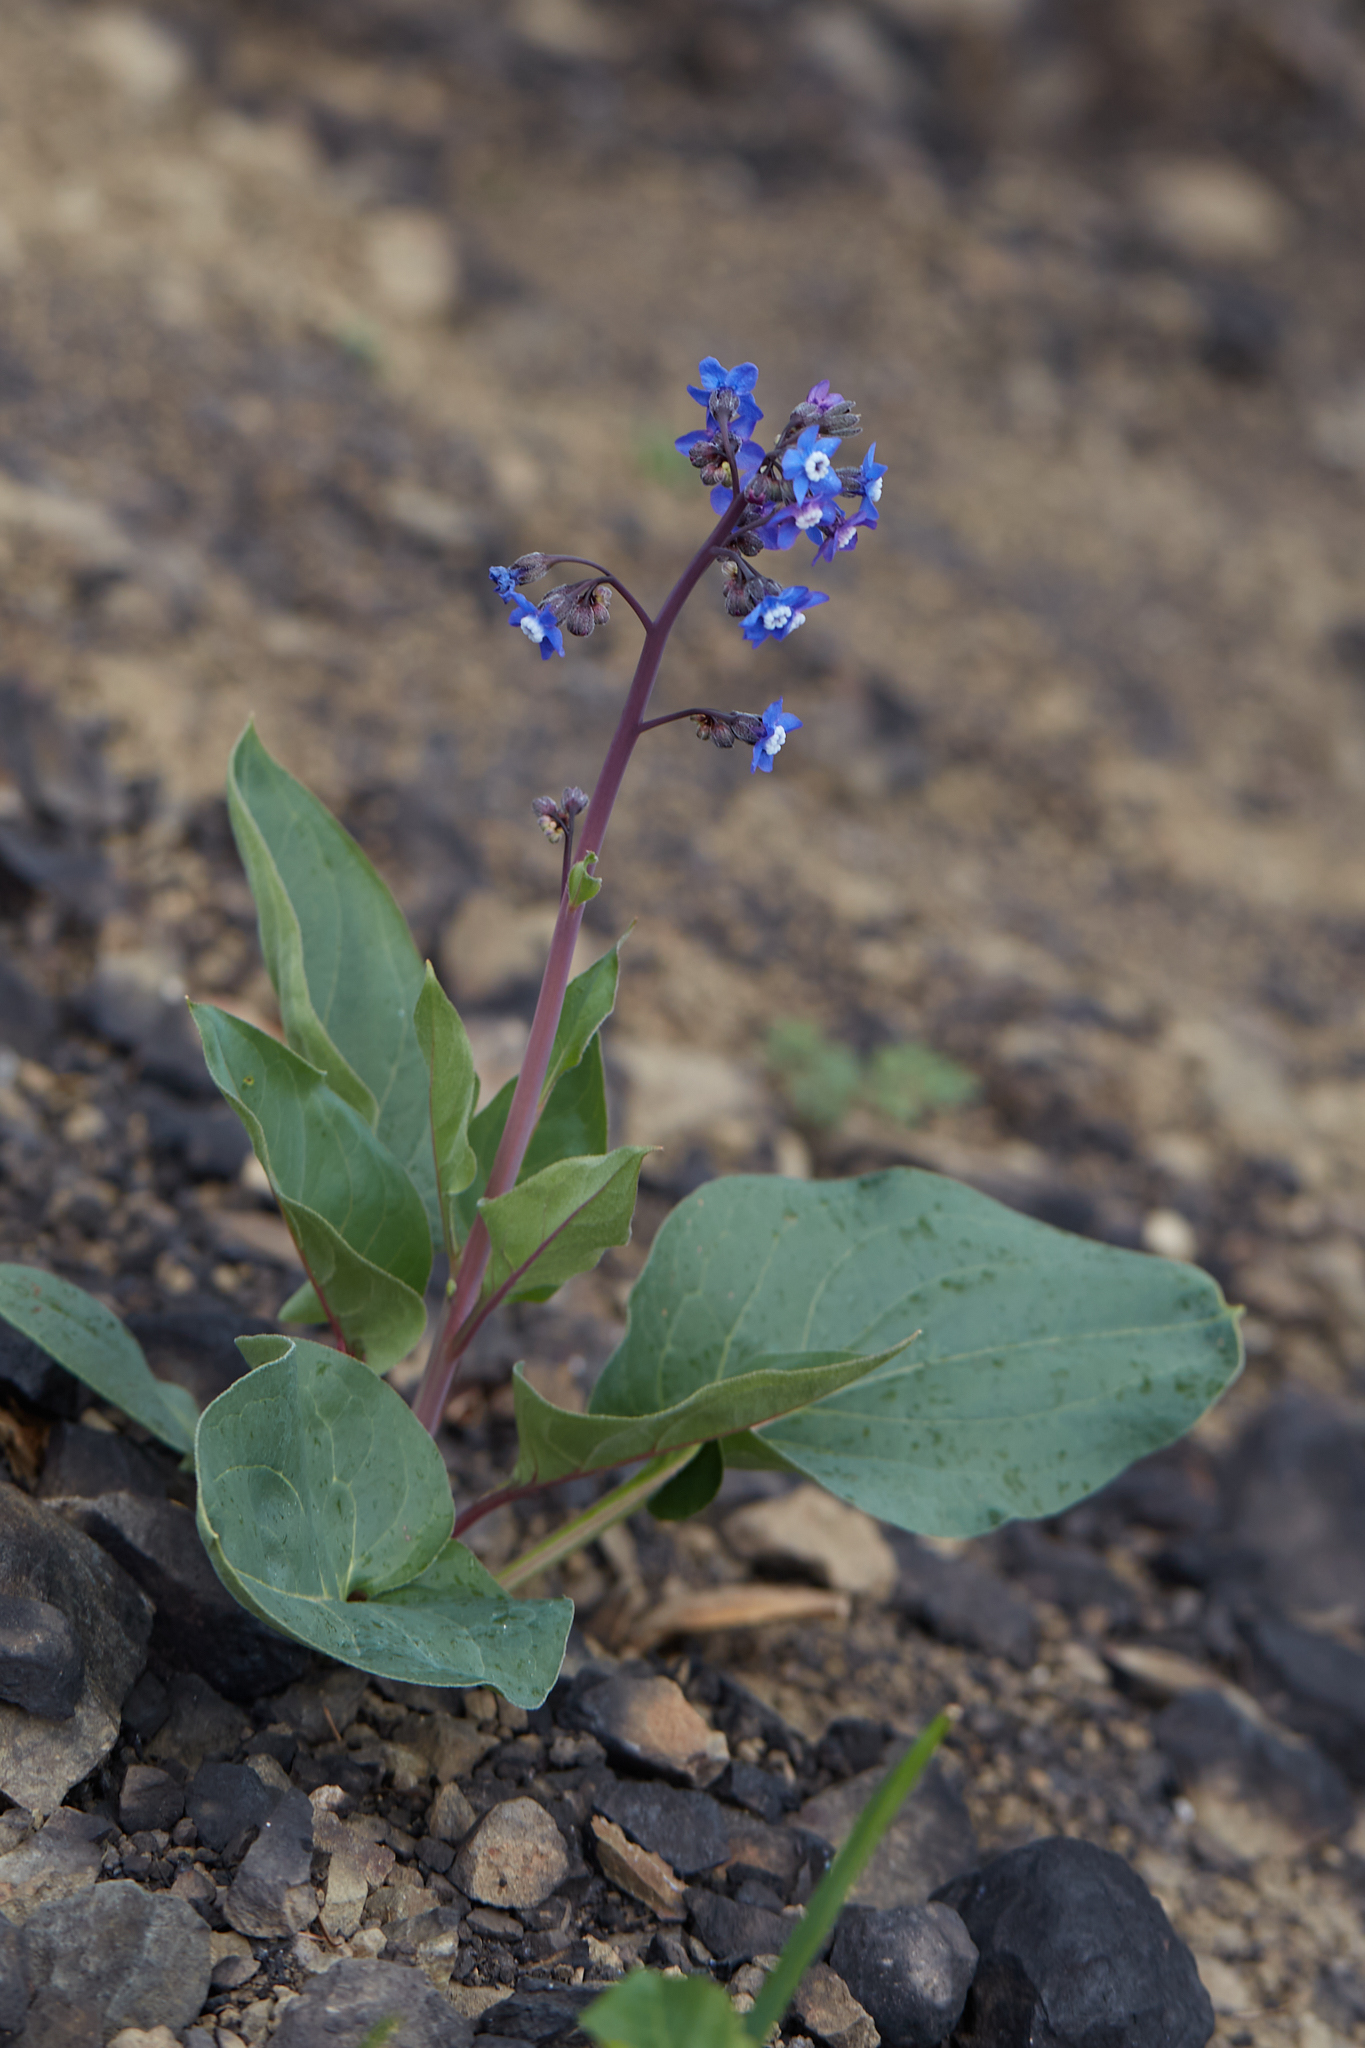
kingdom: Plantae
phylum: Tracheophyta
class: Magnoliopsida
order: Boraginales
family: Boraginaceae
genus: Adelinia
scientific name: Adelinia grande
